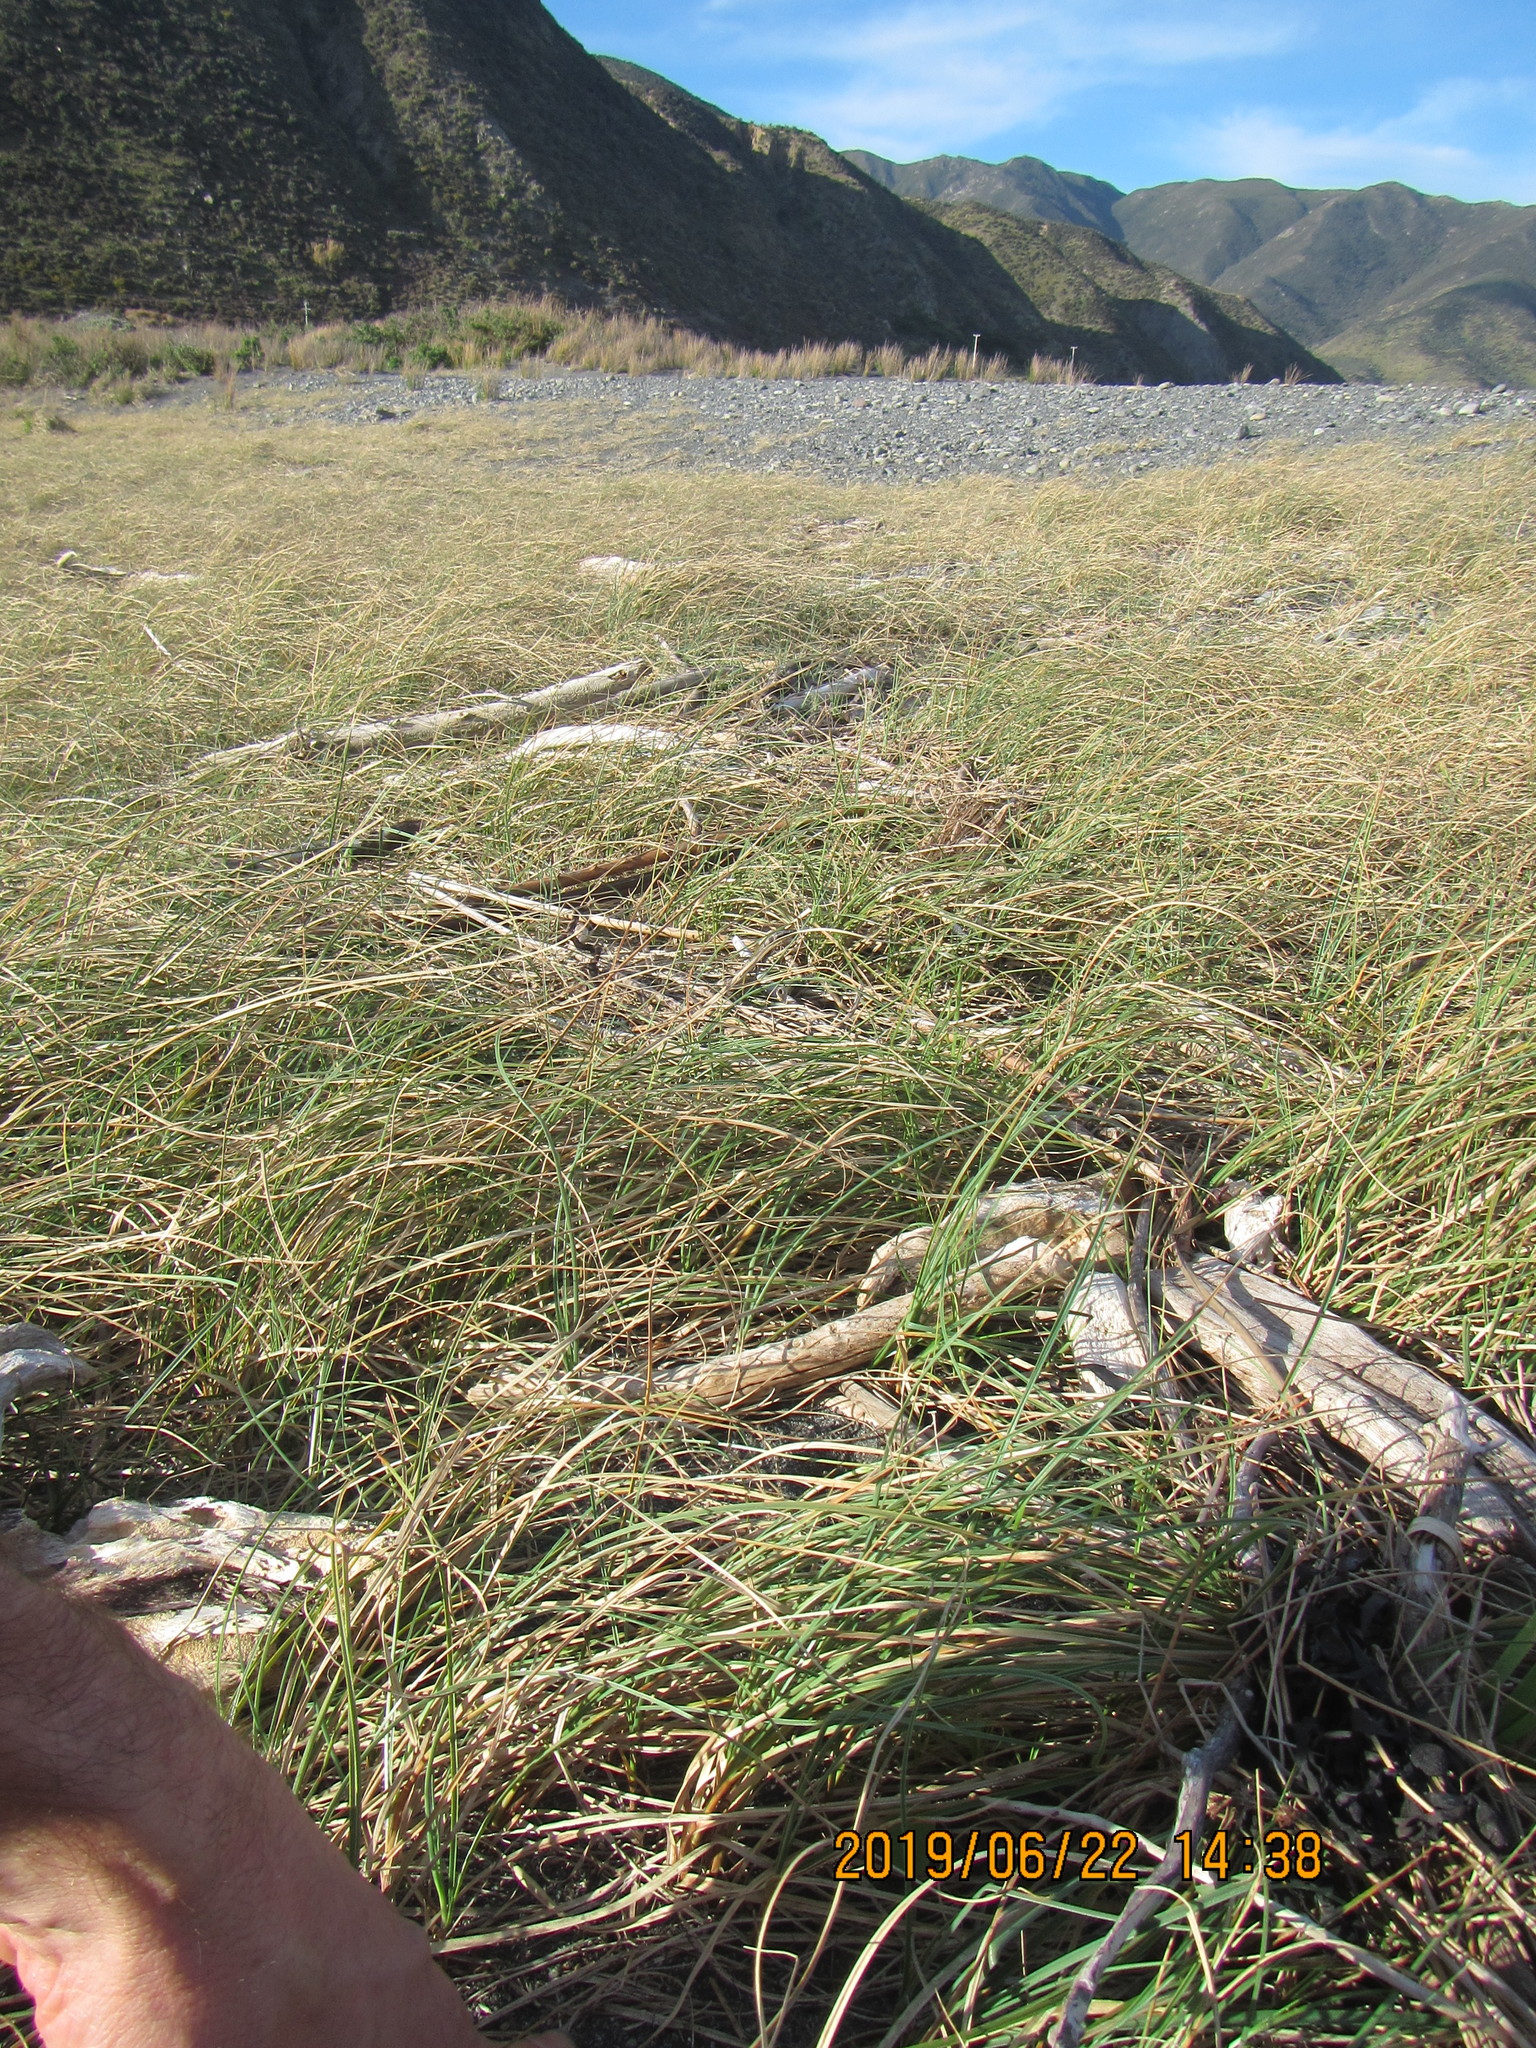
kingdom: Animalia
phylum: Mollusca
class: Gastropoda
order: Littorinimorpha
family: Tateidae
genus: Potamopyrgus
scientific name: Potamopyrgus antipodarum
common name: Jenkins' spire snail
